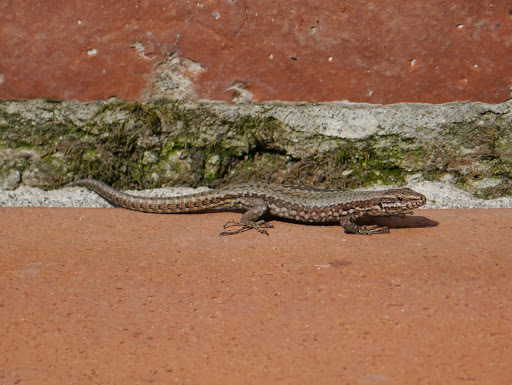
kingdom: Animalia
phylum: Chordata
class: Squamata
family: Lacertidae
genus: Podarcis
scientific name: Podarcis muralis
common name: Common wall lizard
